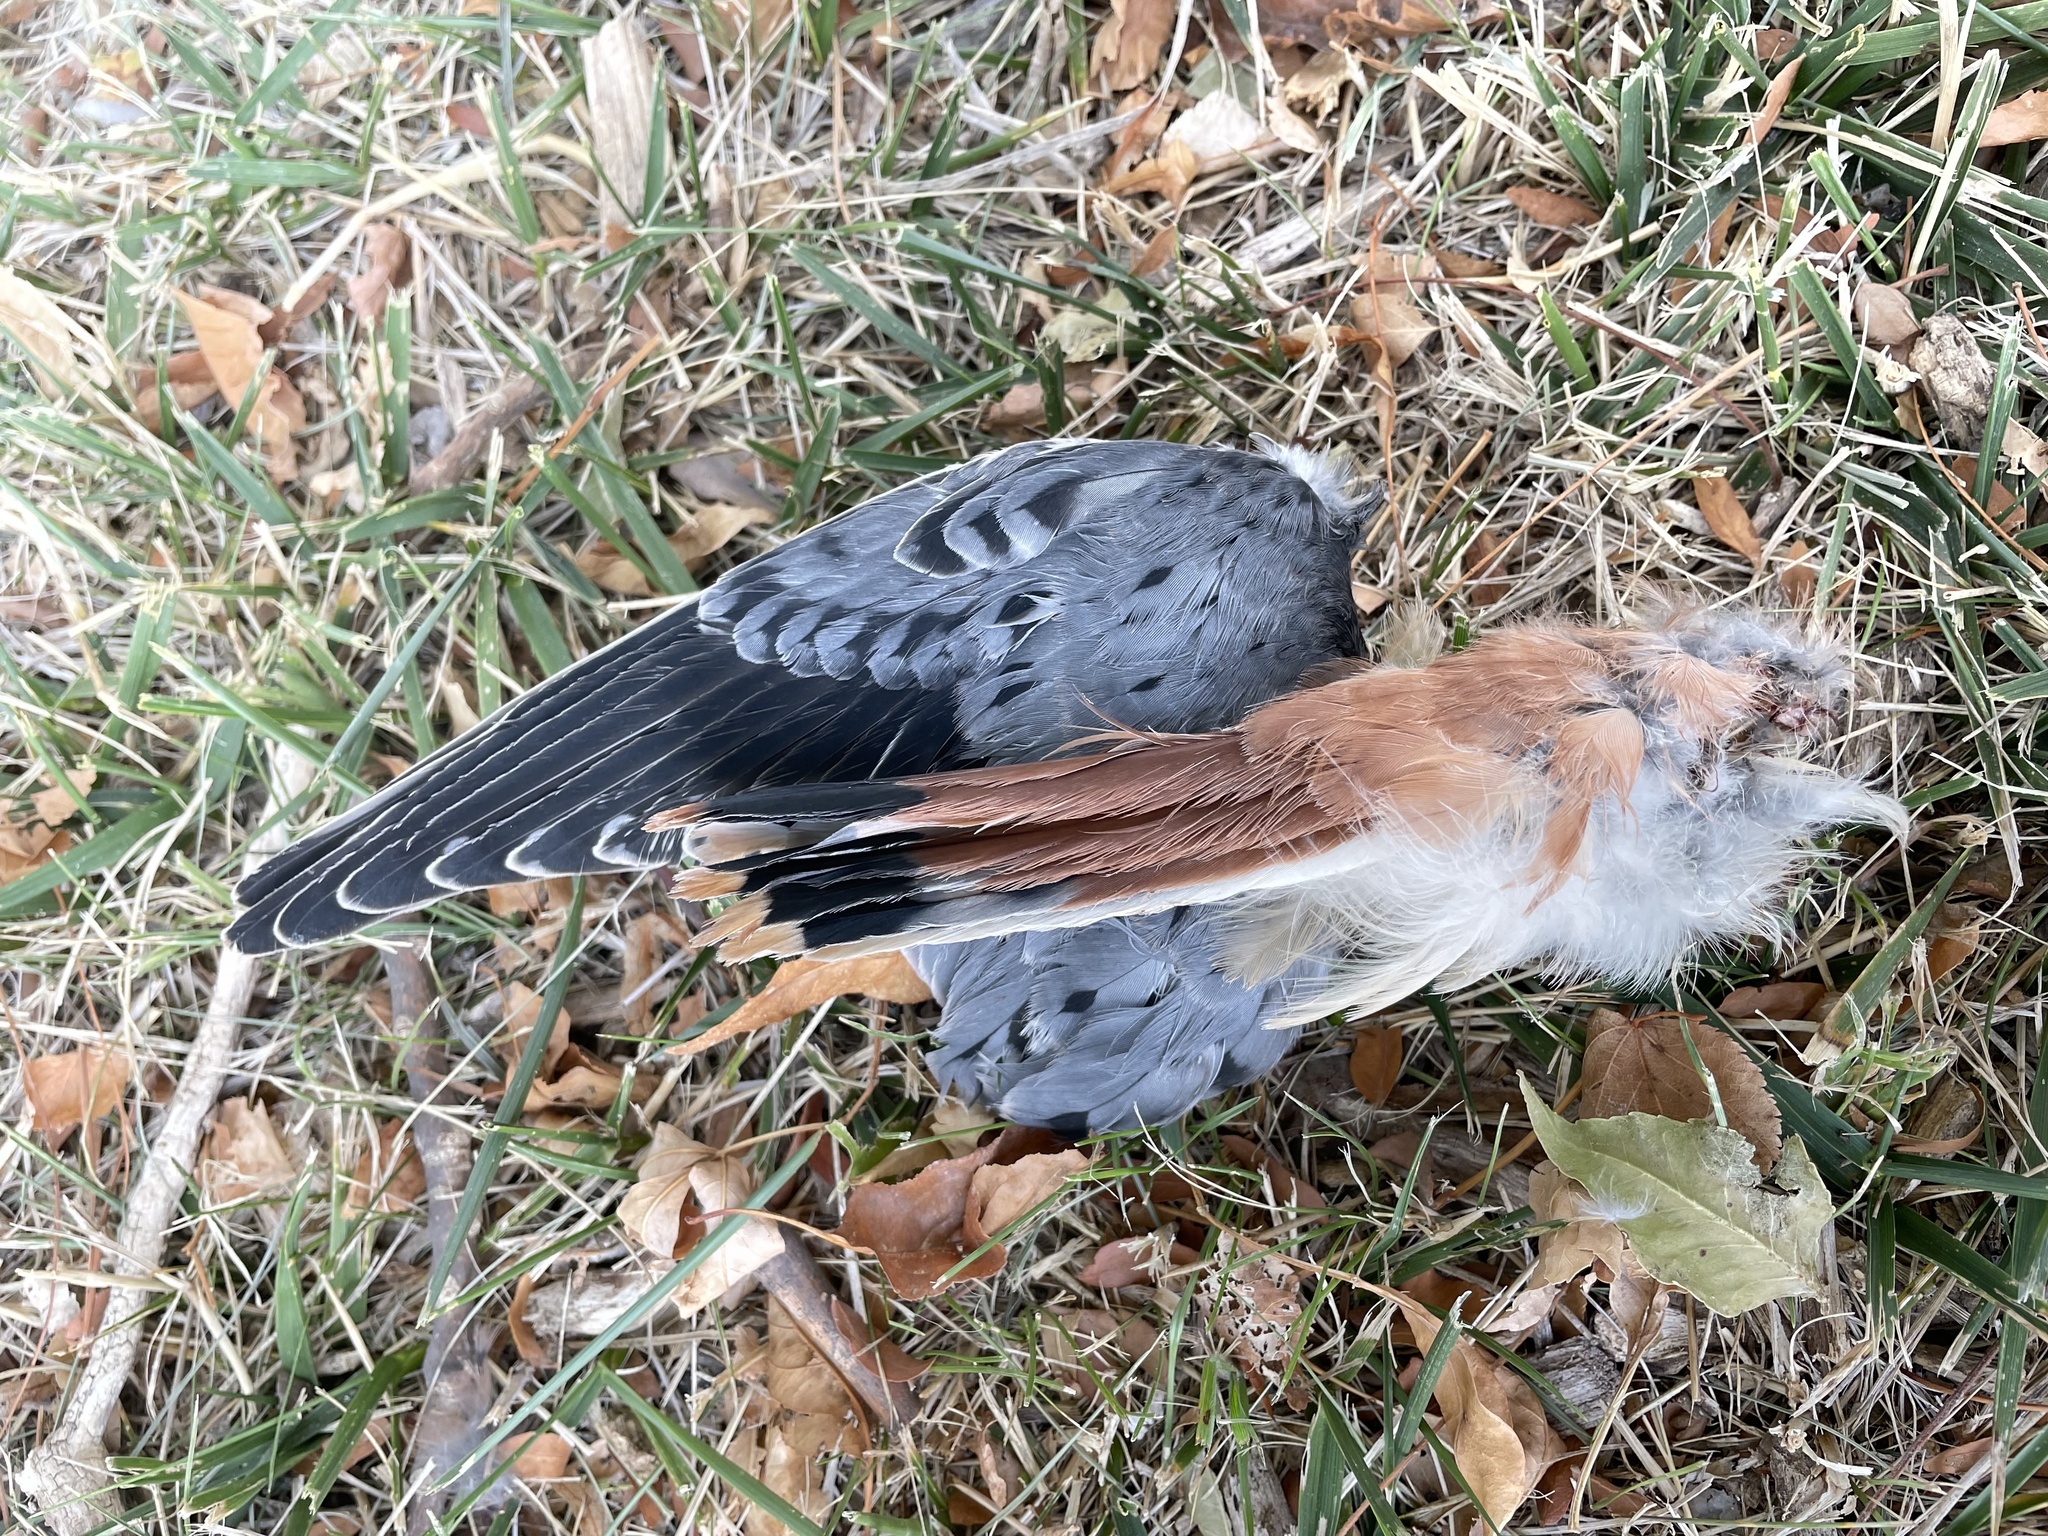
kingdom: Animalia
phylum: Chordata
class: Aves
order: Falconiformes
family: Falconidae
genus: Falco
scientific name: Falco sparverius
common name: American kestrel
